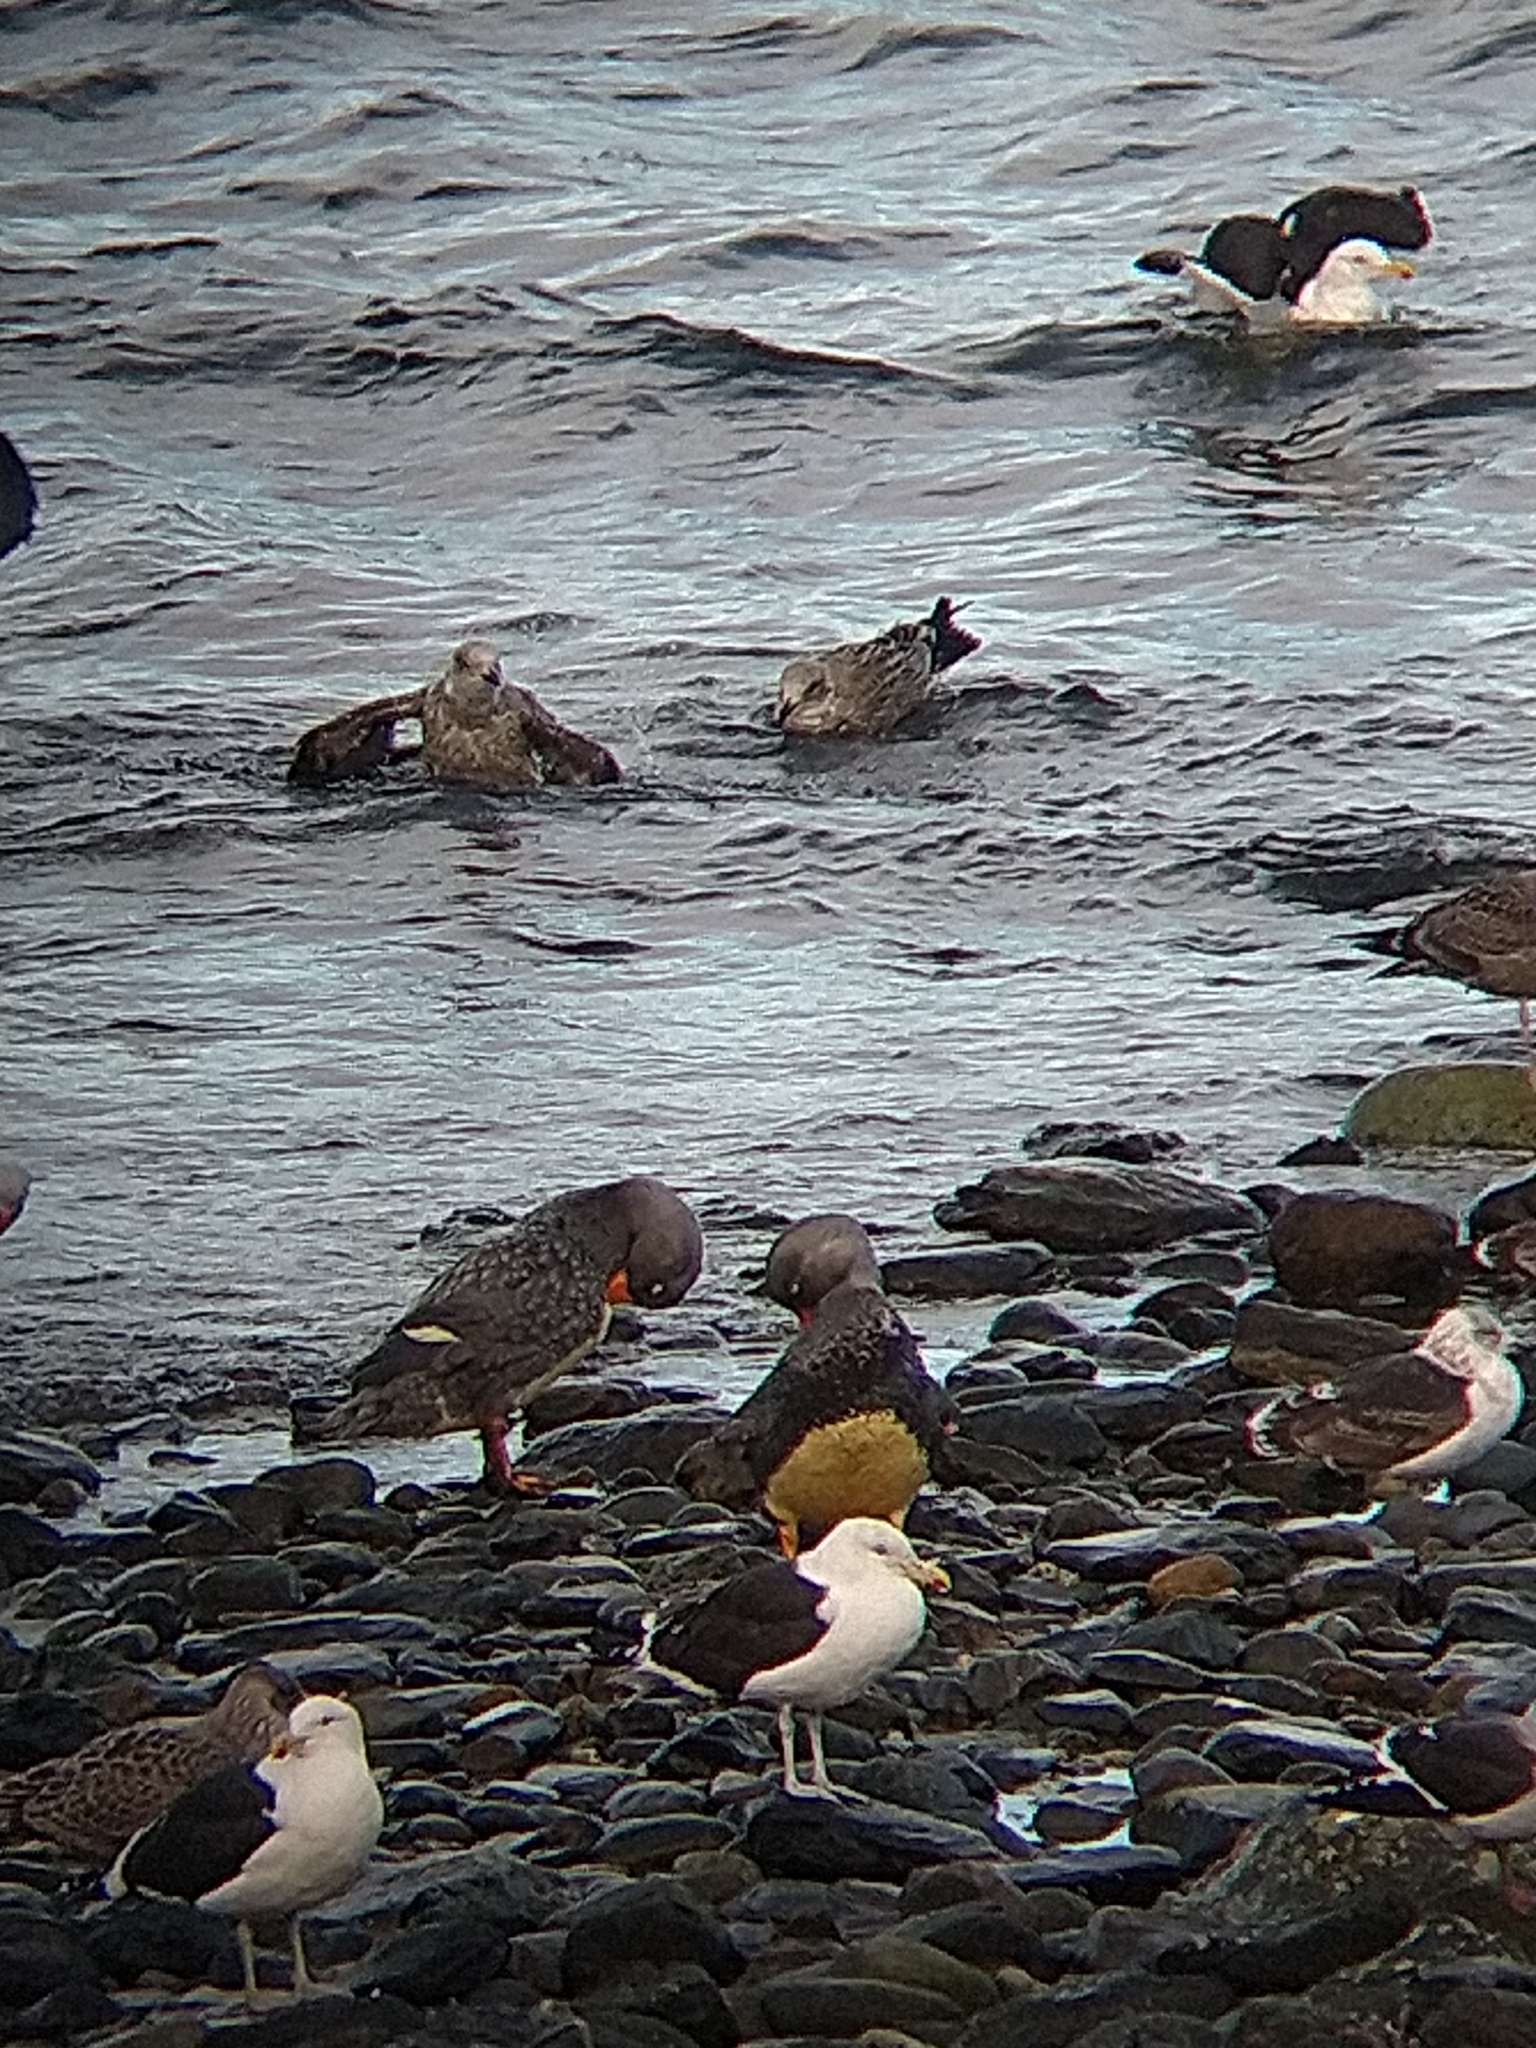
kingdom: Animalia
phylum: Chordata
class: Aves
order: Anseriformes
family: Anatidae
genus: Tachyeres
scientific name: Tachyeres pteneres
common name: Fuegian steamer duck
